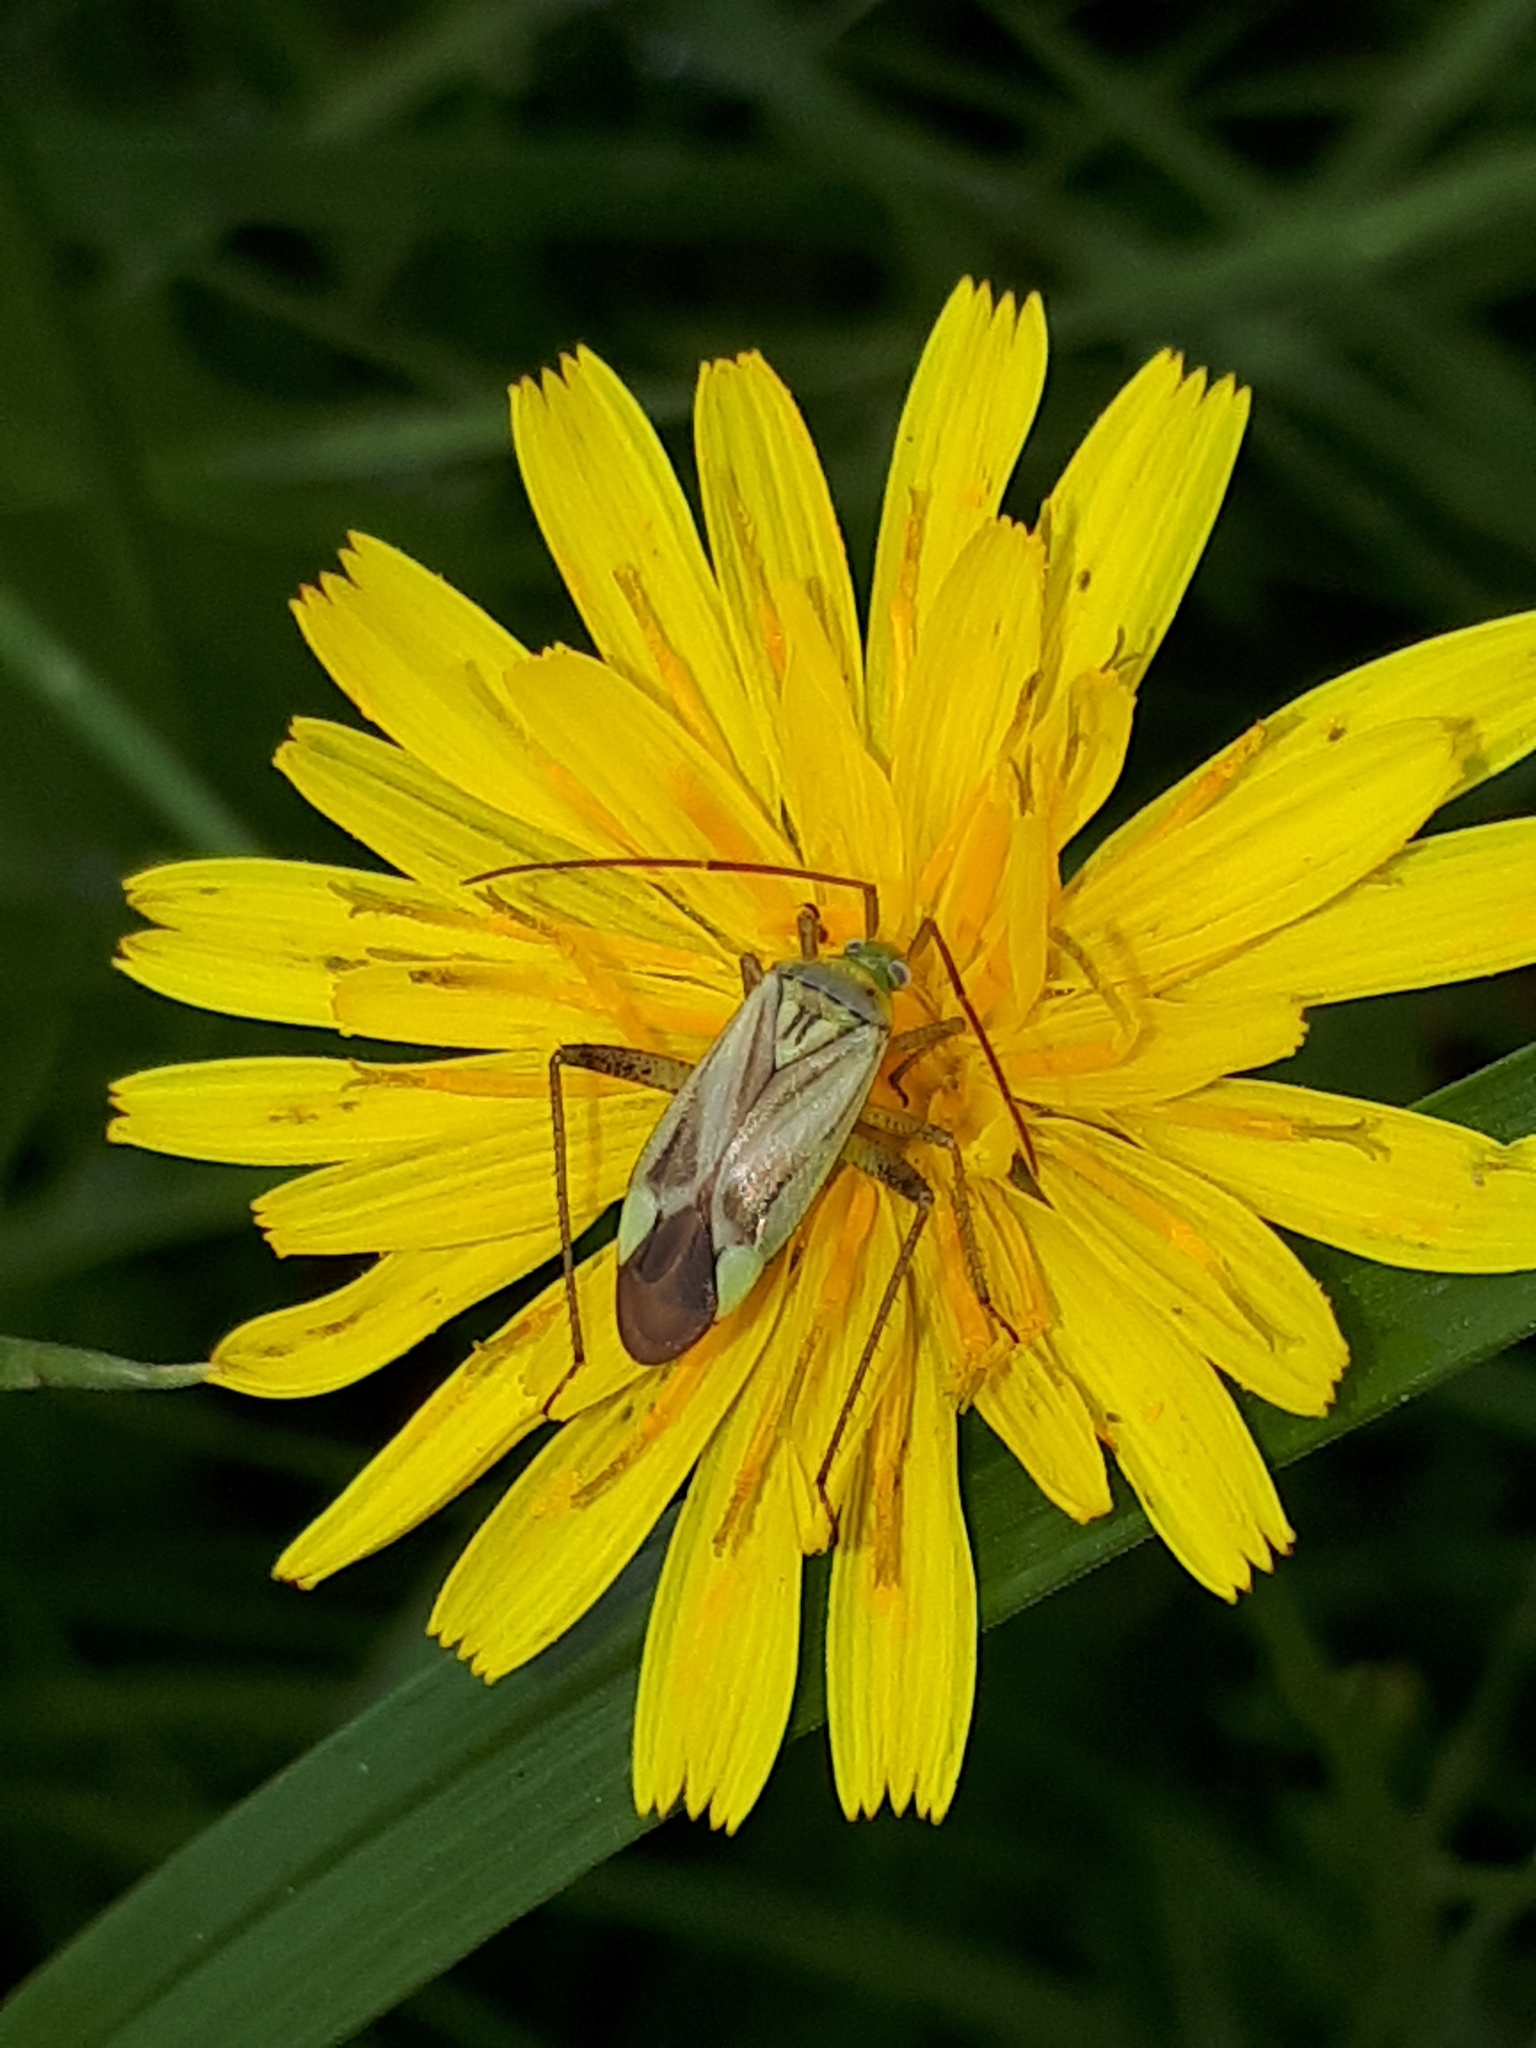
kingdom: Animalia
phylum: Arthropoda
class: Insecta
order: Hemiptera
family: Miridae
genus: Adelphocoris
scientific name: Adelphocoris lineolatus
